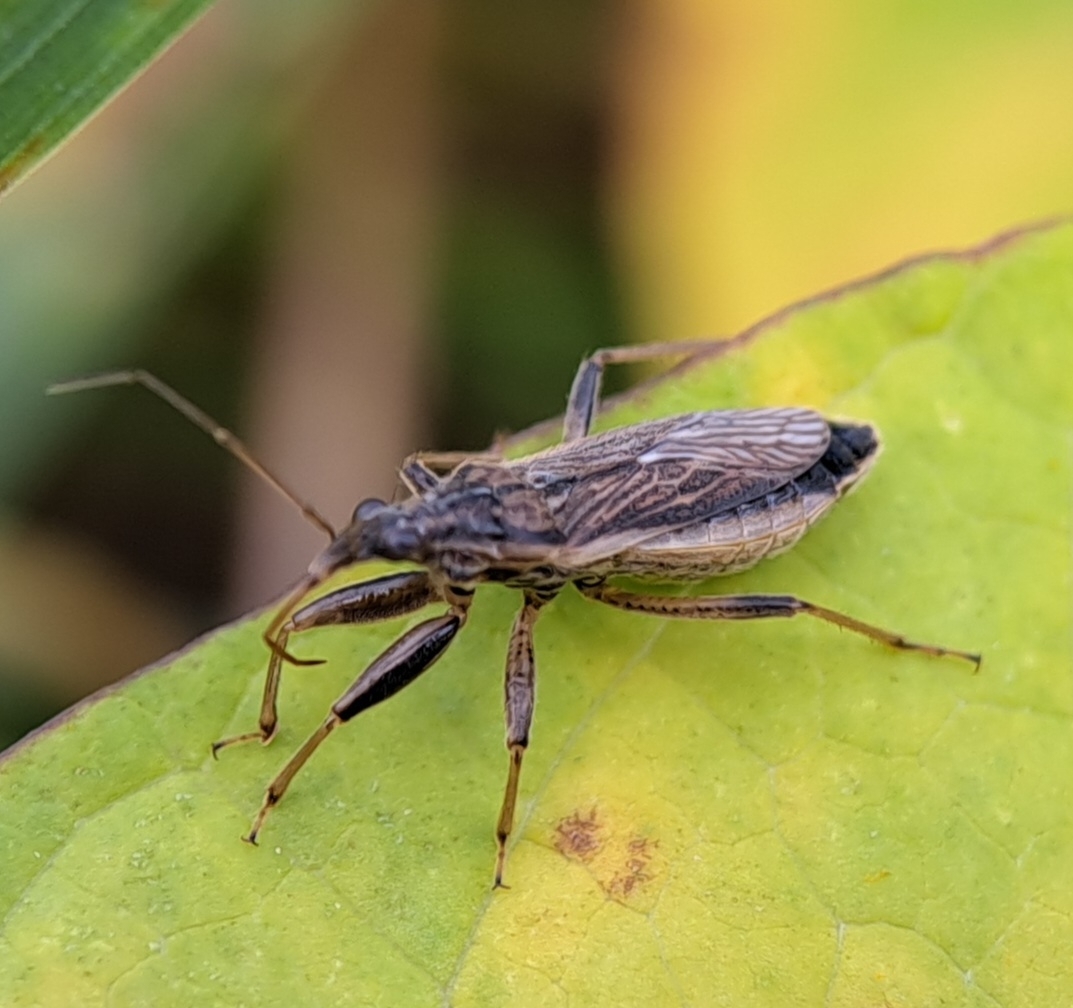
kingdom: Animalia
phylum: Arthropoda
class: Insecta
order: Hemiptera
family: Nabidae
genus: Himacerus
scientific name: Himacerus major
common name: Damsel bug
